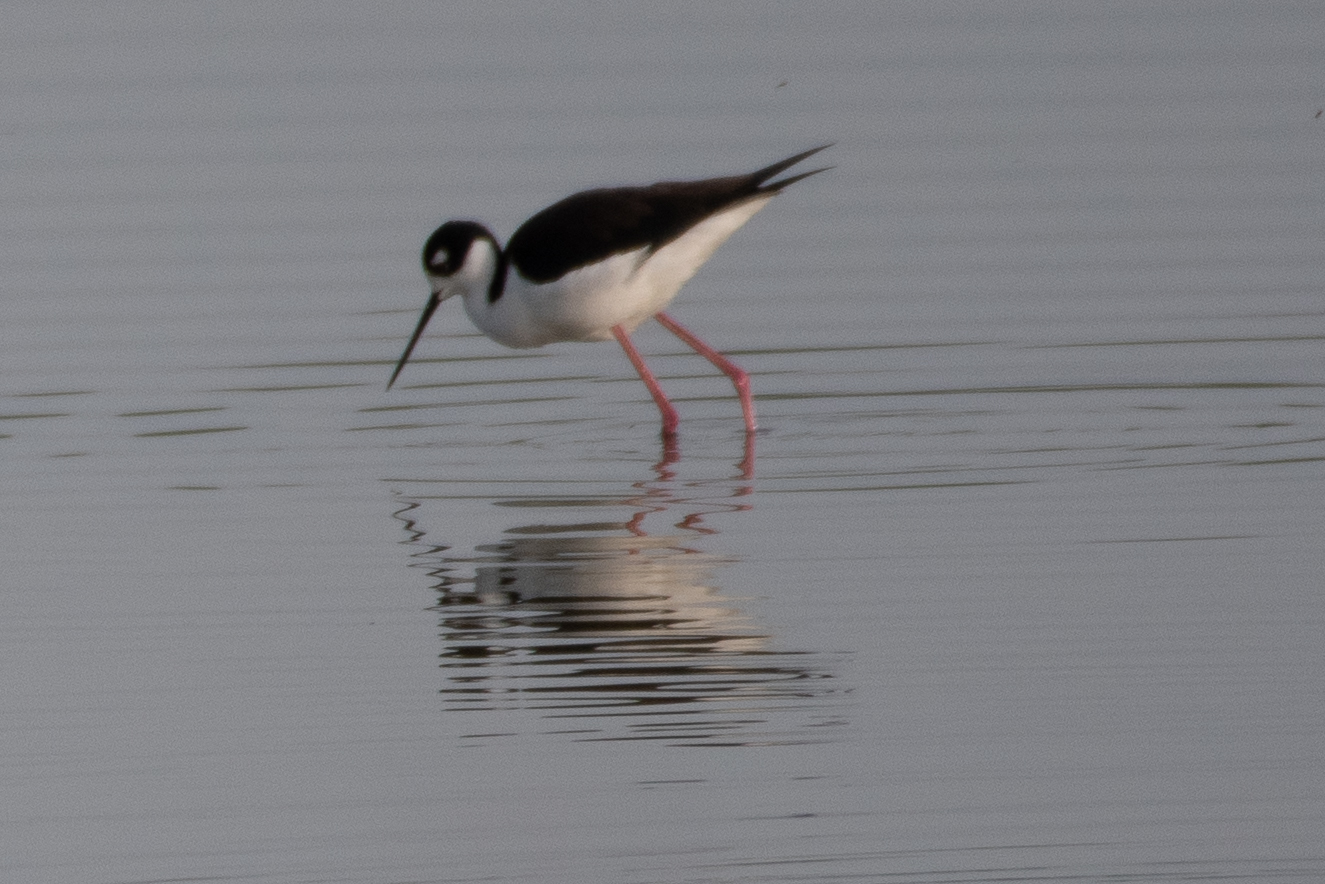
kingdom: Animalia
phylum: Chordata
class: Aves
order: Charadriiformes
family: Recurvirostridae
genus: Himantopus
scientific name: Himantopus mexicanus
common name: Black-necked stilt
